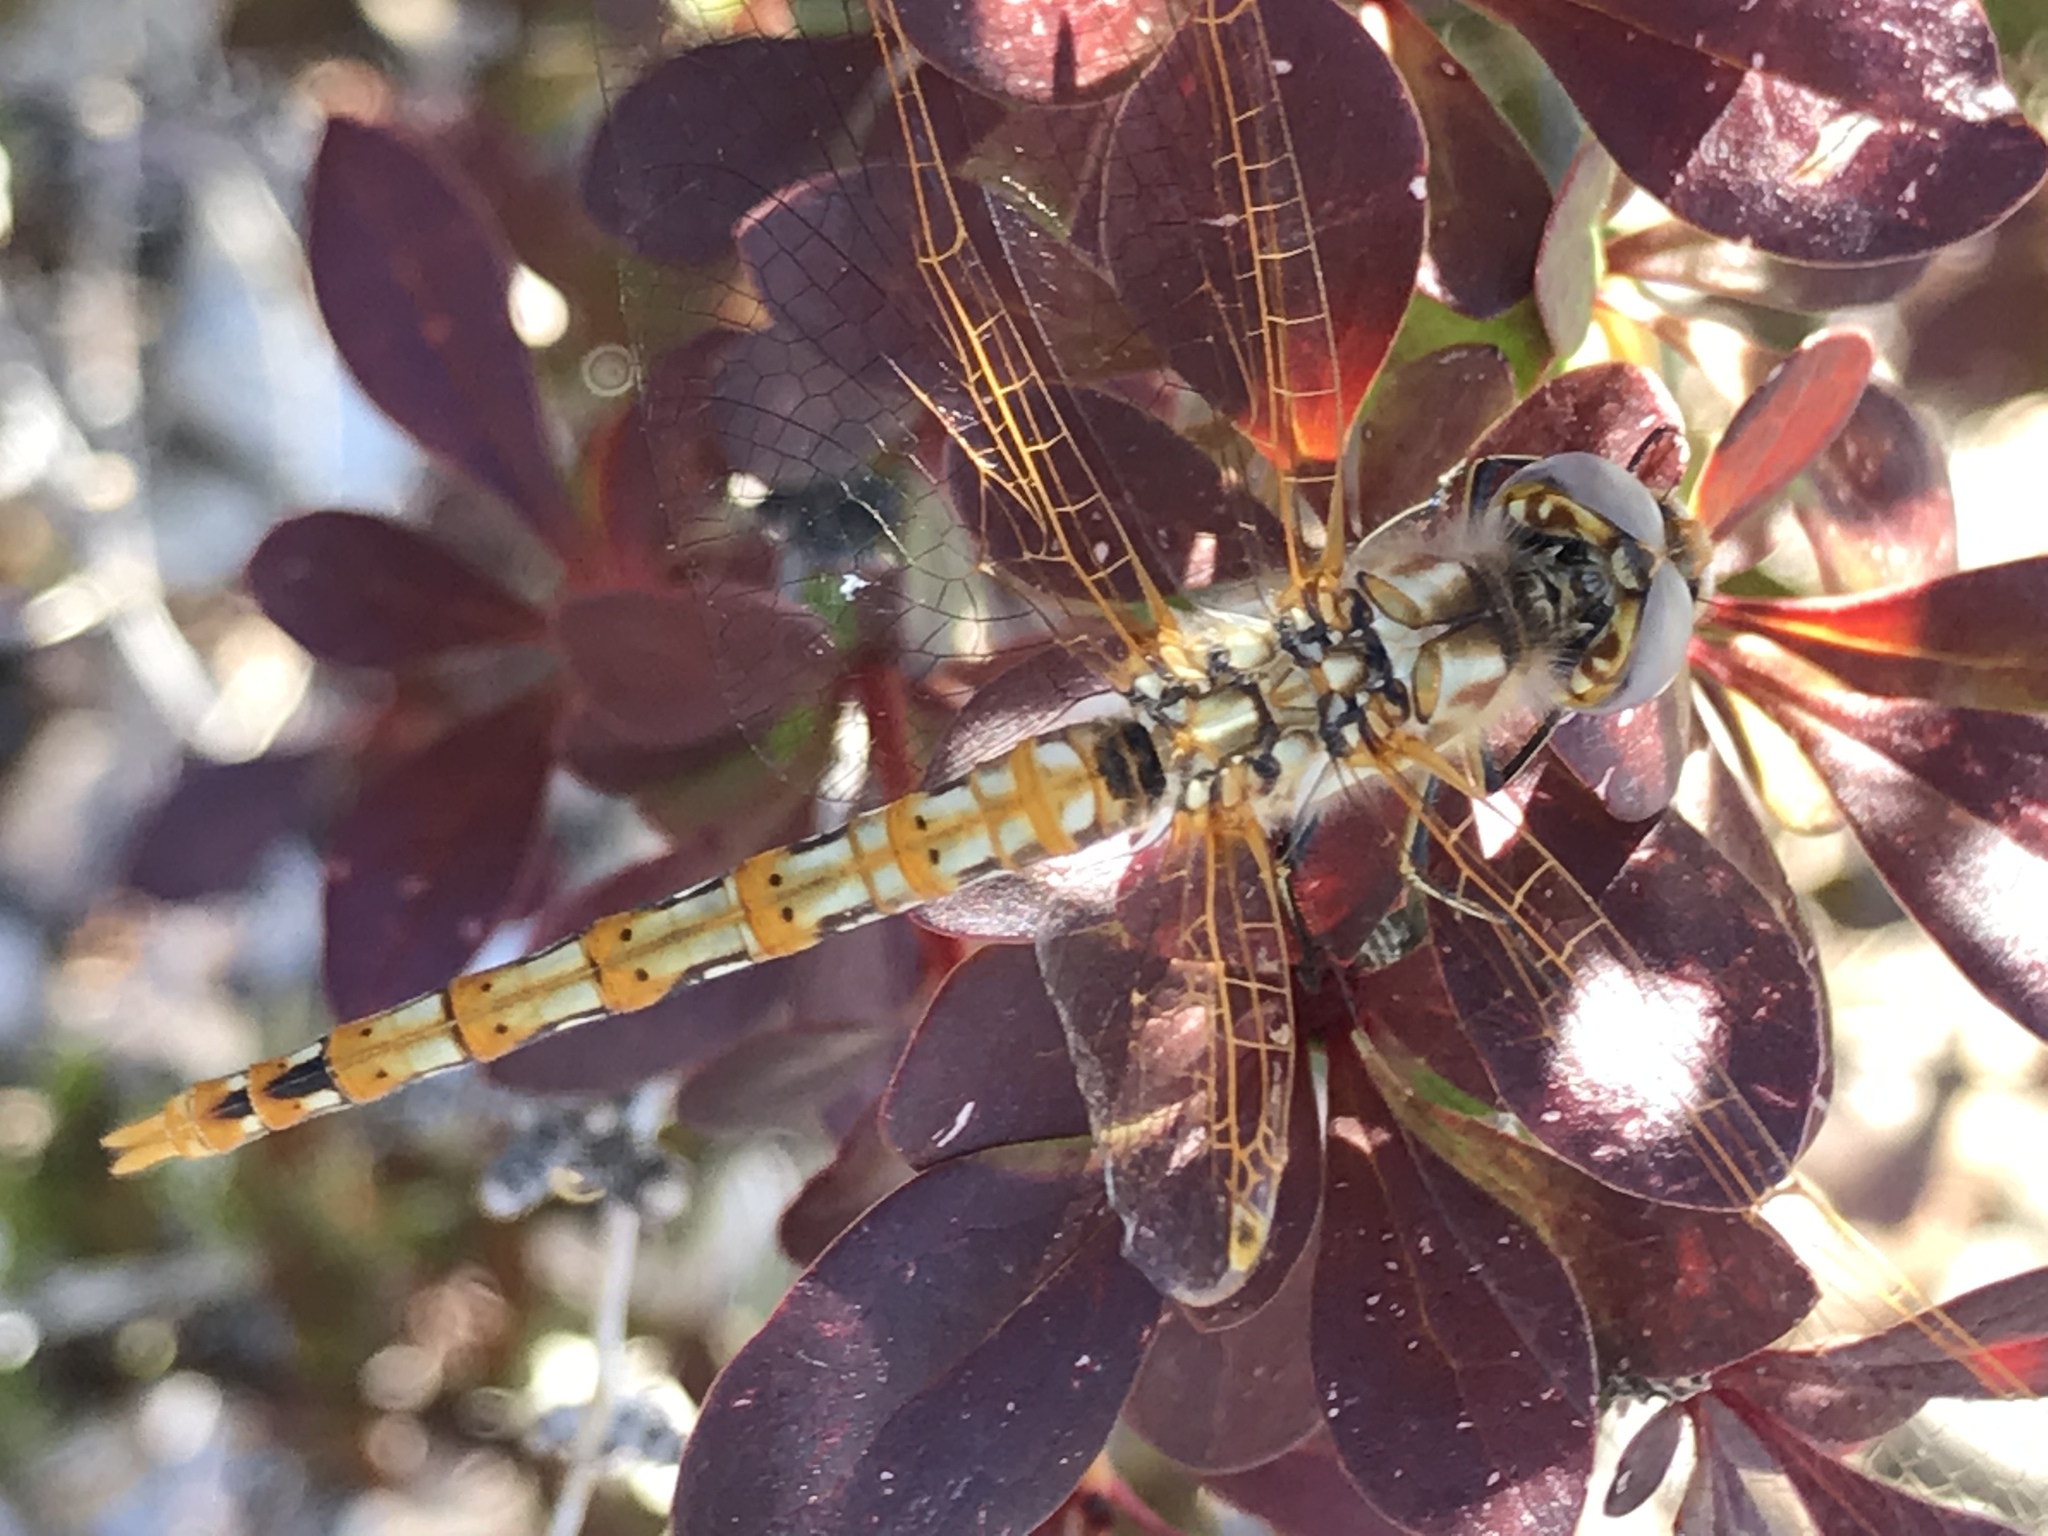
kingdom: Animalia
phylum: Arthropoda
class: Insecta
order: Odonata
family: Libellulidae
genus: Sympetrum
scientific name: Sympetrum corruptum
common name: Variegated meadowhawk
